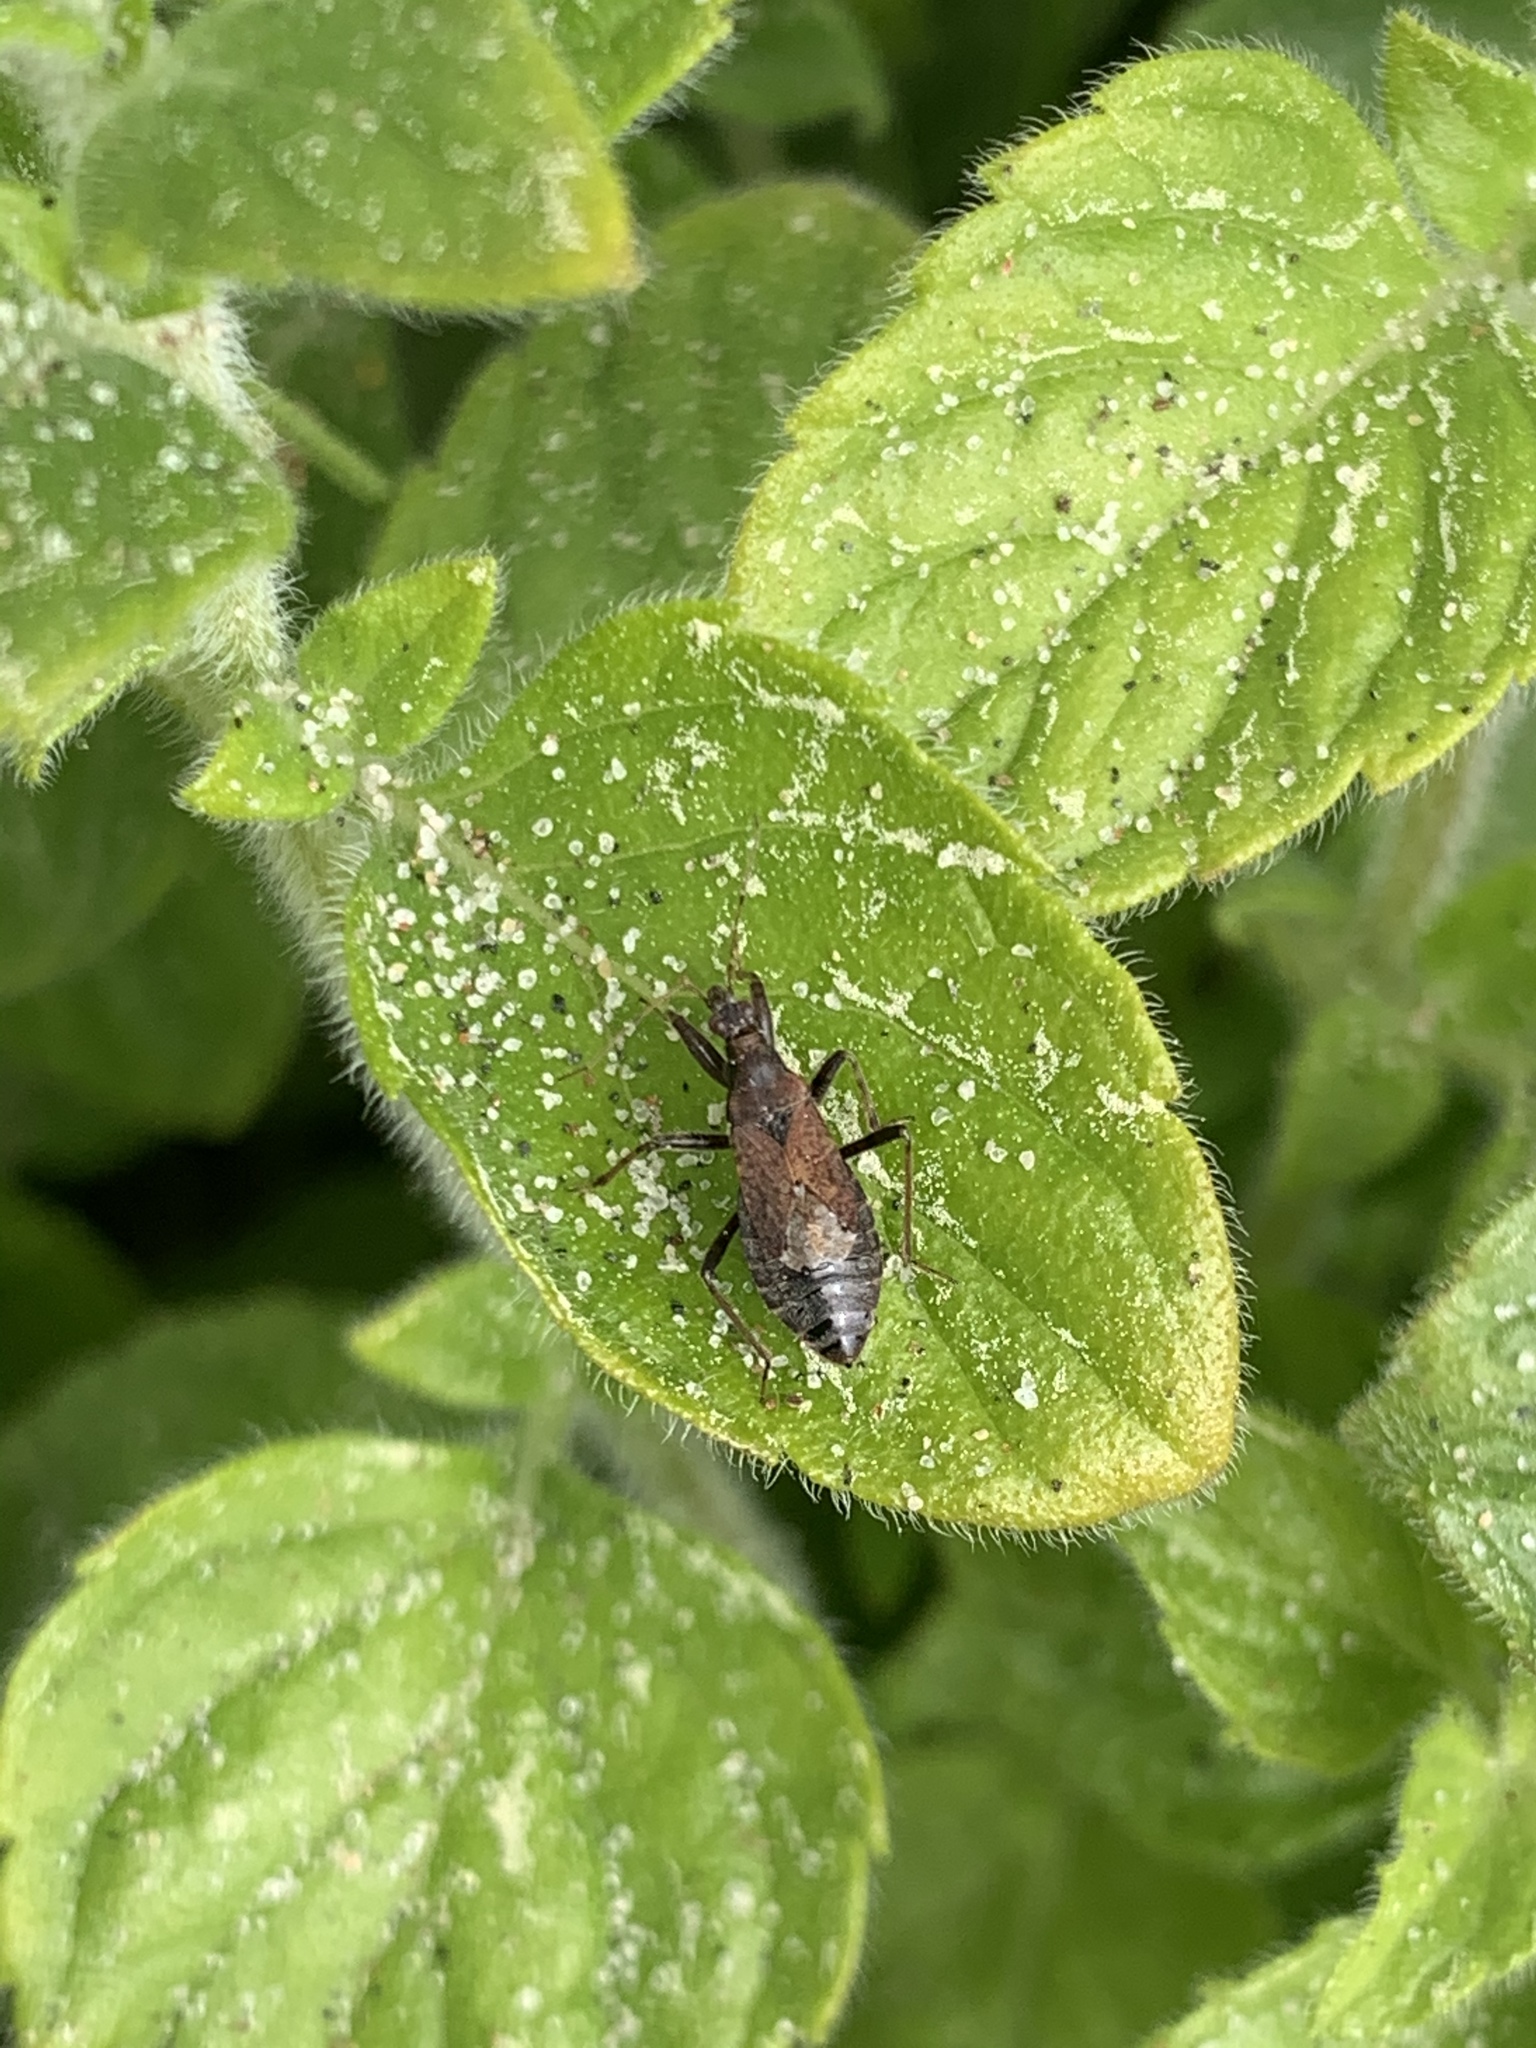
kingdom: Animalia
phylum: Arthropoda
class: Insecta
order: Hemiptera
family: Nabidae
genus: Himacerus
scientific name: Himacerus mirmicoides
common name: Ant damsel bug
